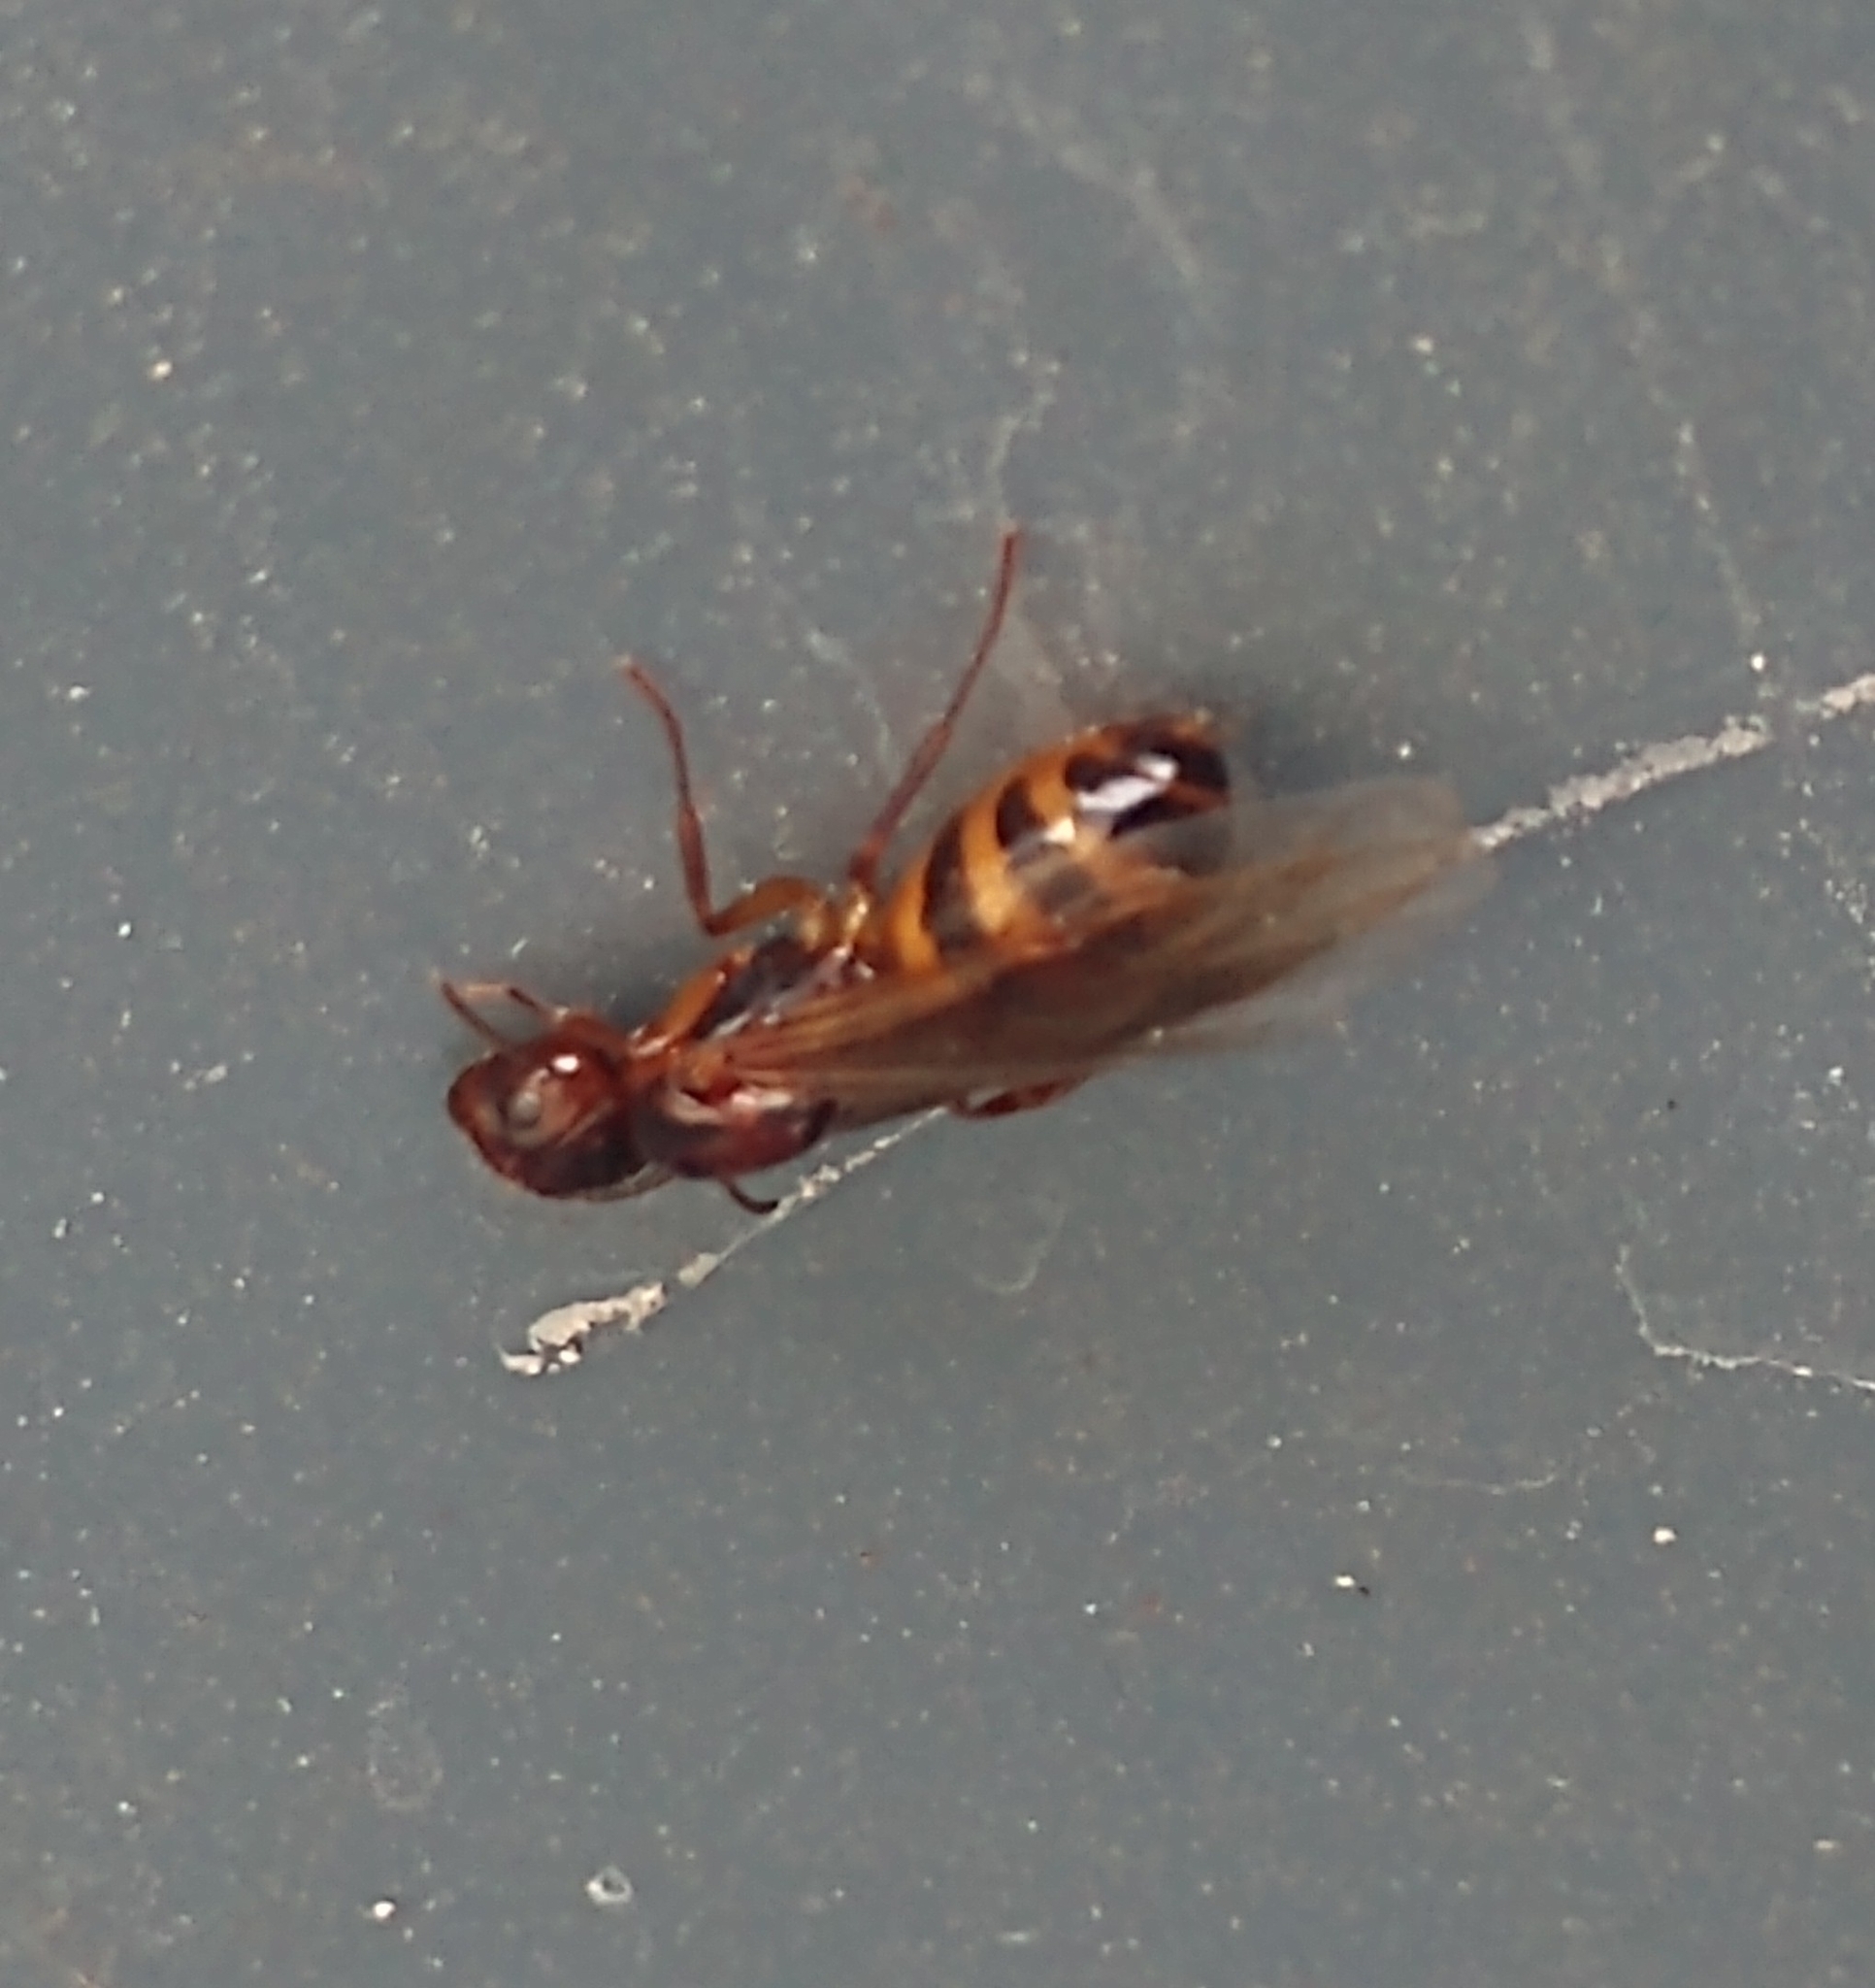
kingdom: Animalia
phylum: Arthropoda
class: Insecta
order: Hymenoptera
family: Formicidae
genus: Camponotus
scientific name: Camponotus subbarbatus
